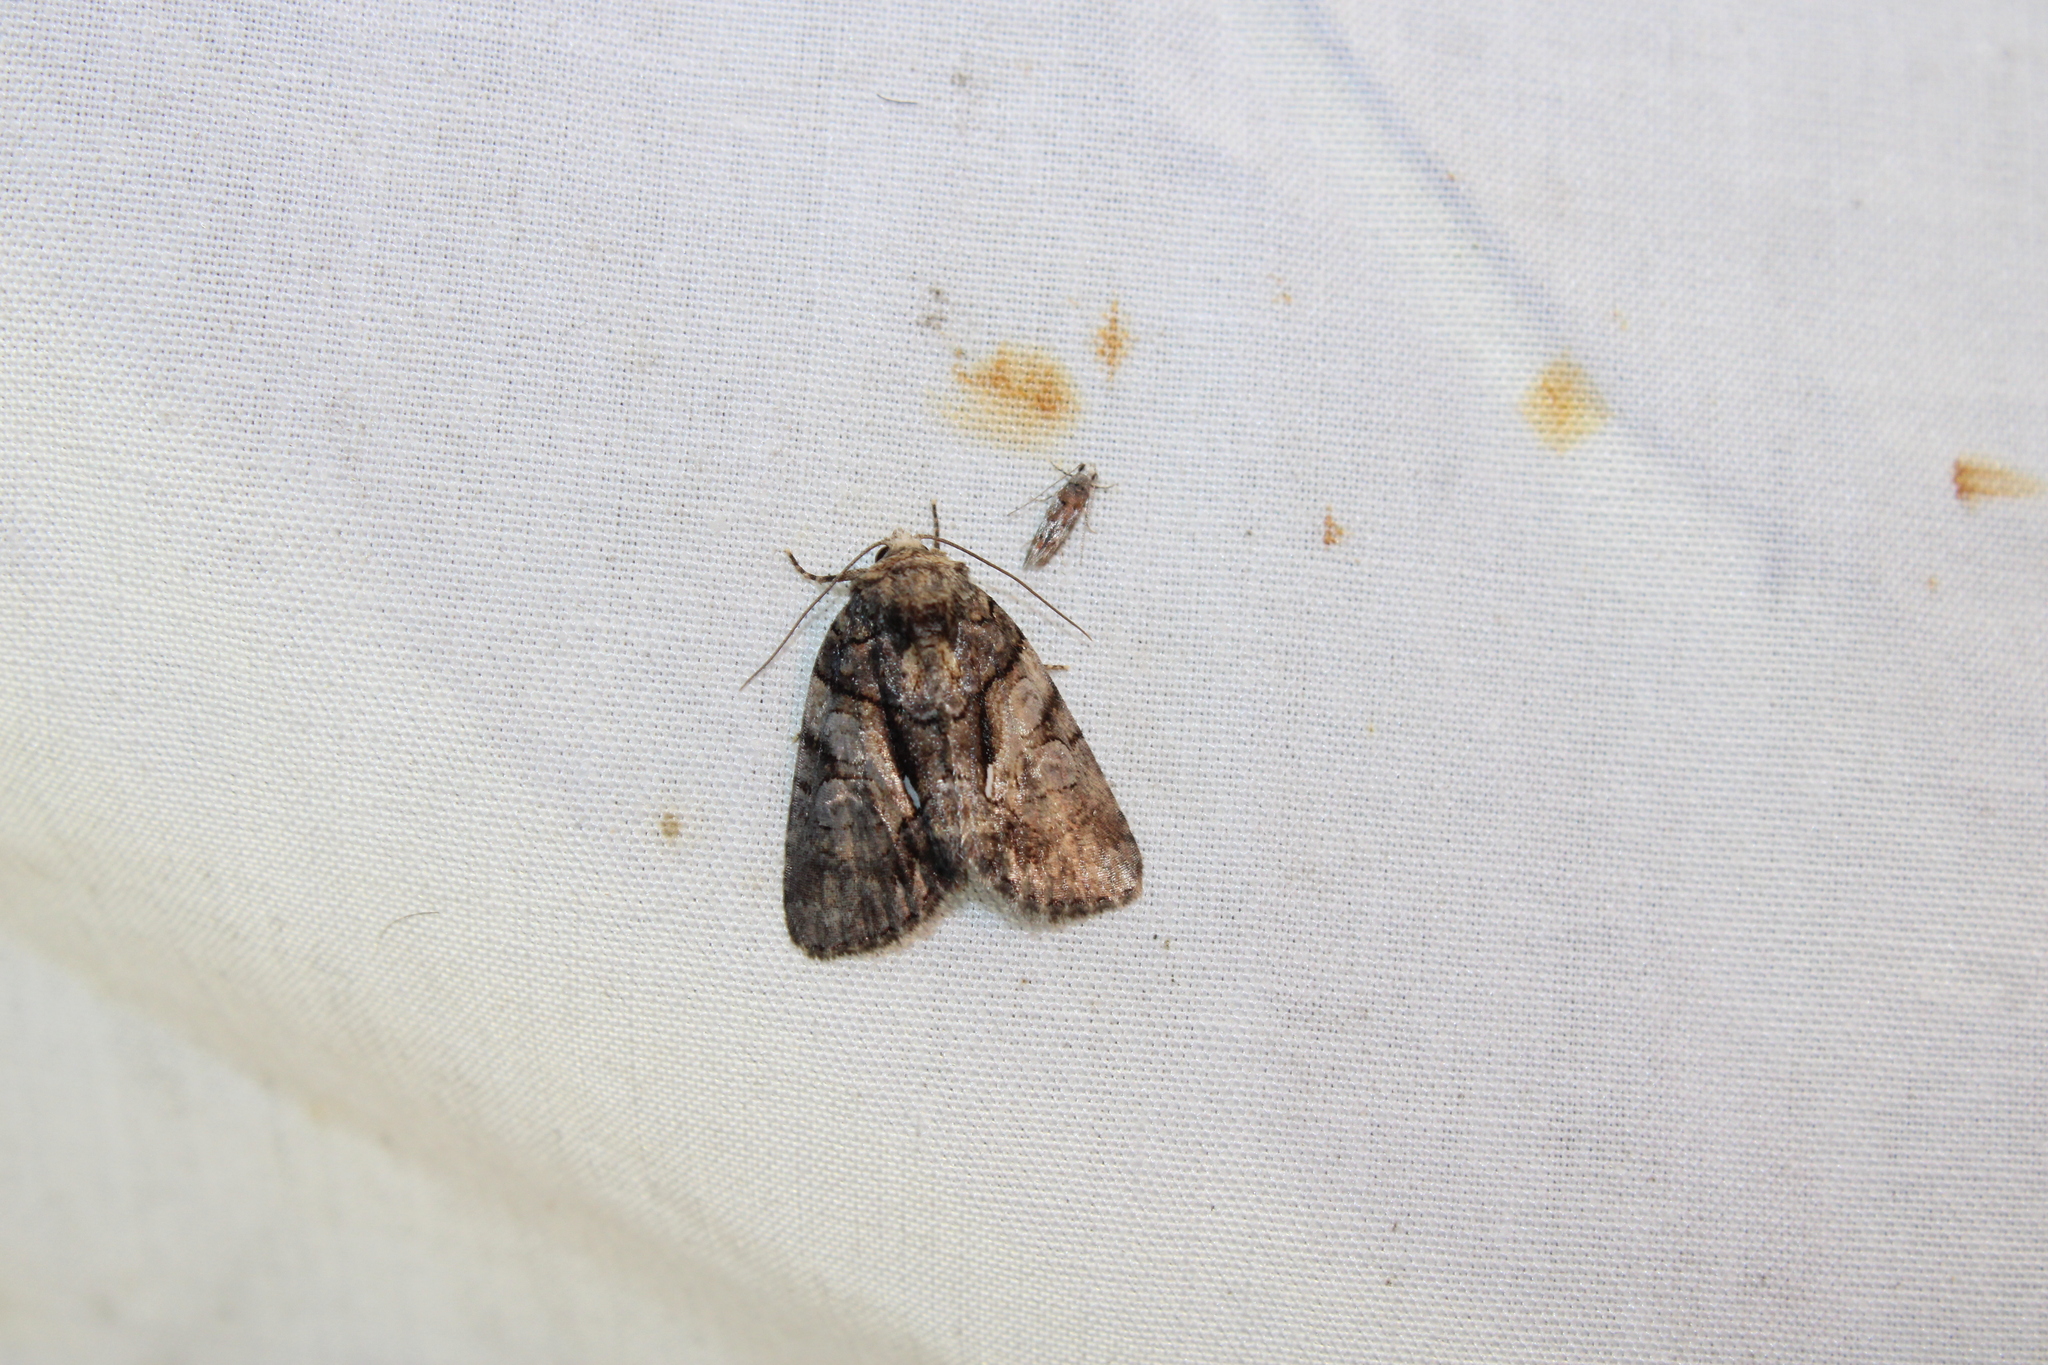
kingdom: Animalia
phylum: Arthropoda
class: Insecta
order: Lepidoptera
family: Noctuidae
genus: Chytonix
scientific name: Chytonix palliatricula
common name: Cloaked marvel
